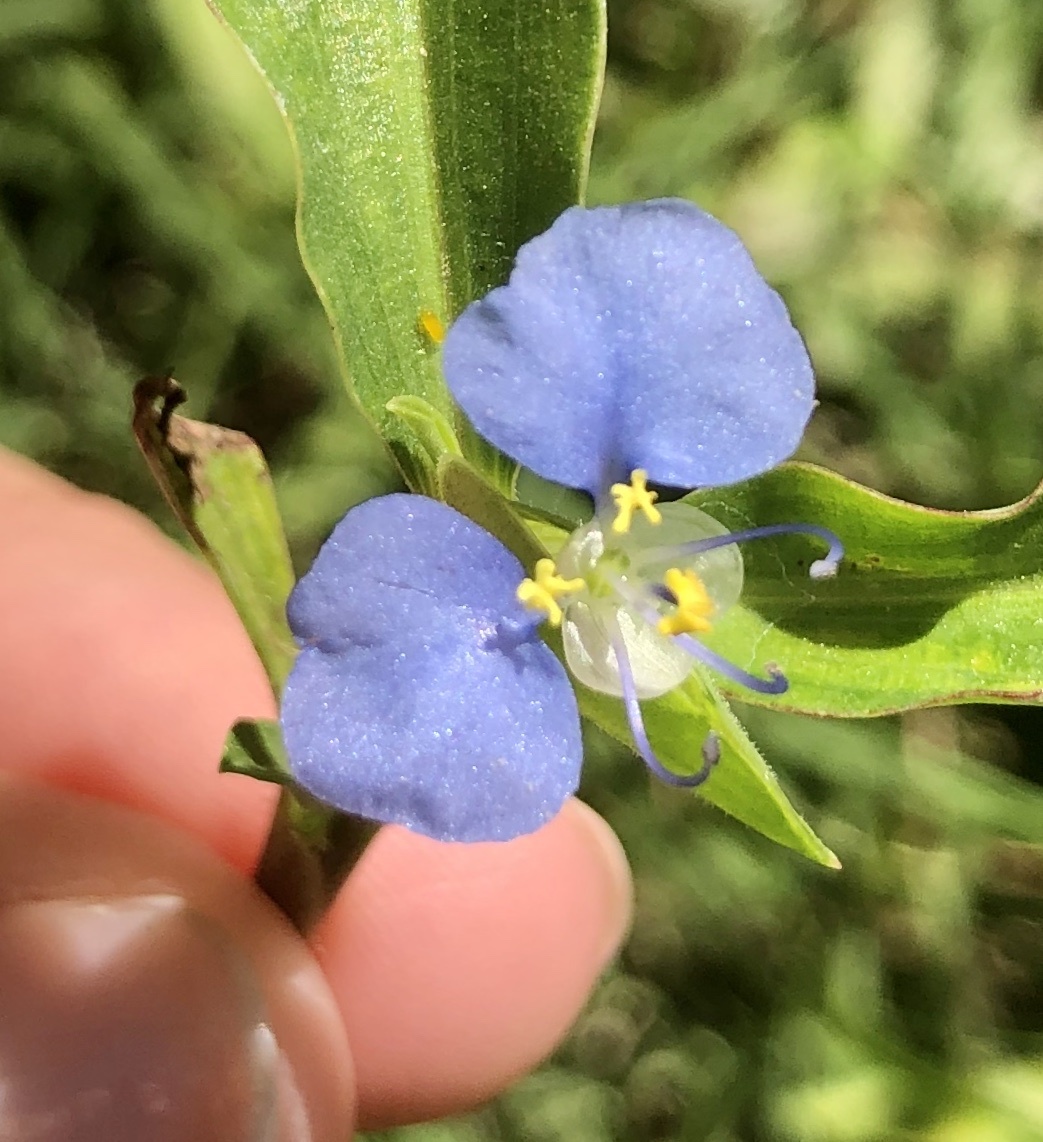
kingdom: Plantae
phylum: Tracheophyta
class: Liliopsida
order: Commelinales
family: Commelinaceae
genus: Commelina
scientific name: Commelina erecta
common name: Blousel blommetjie
